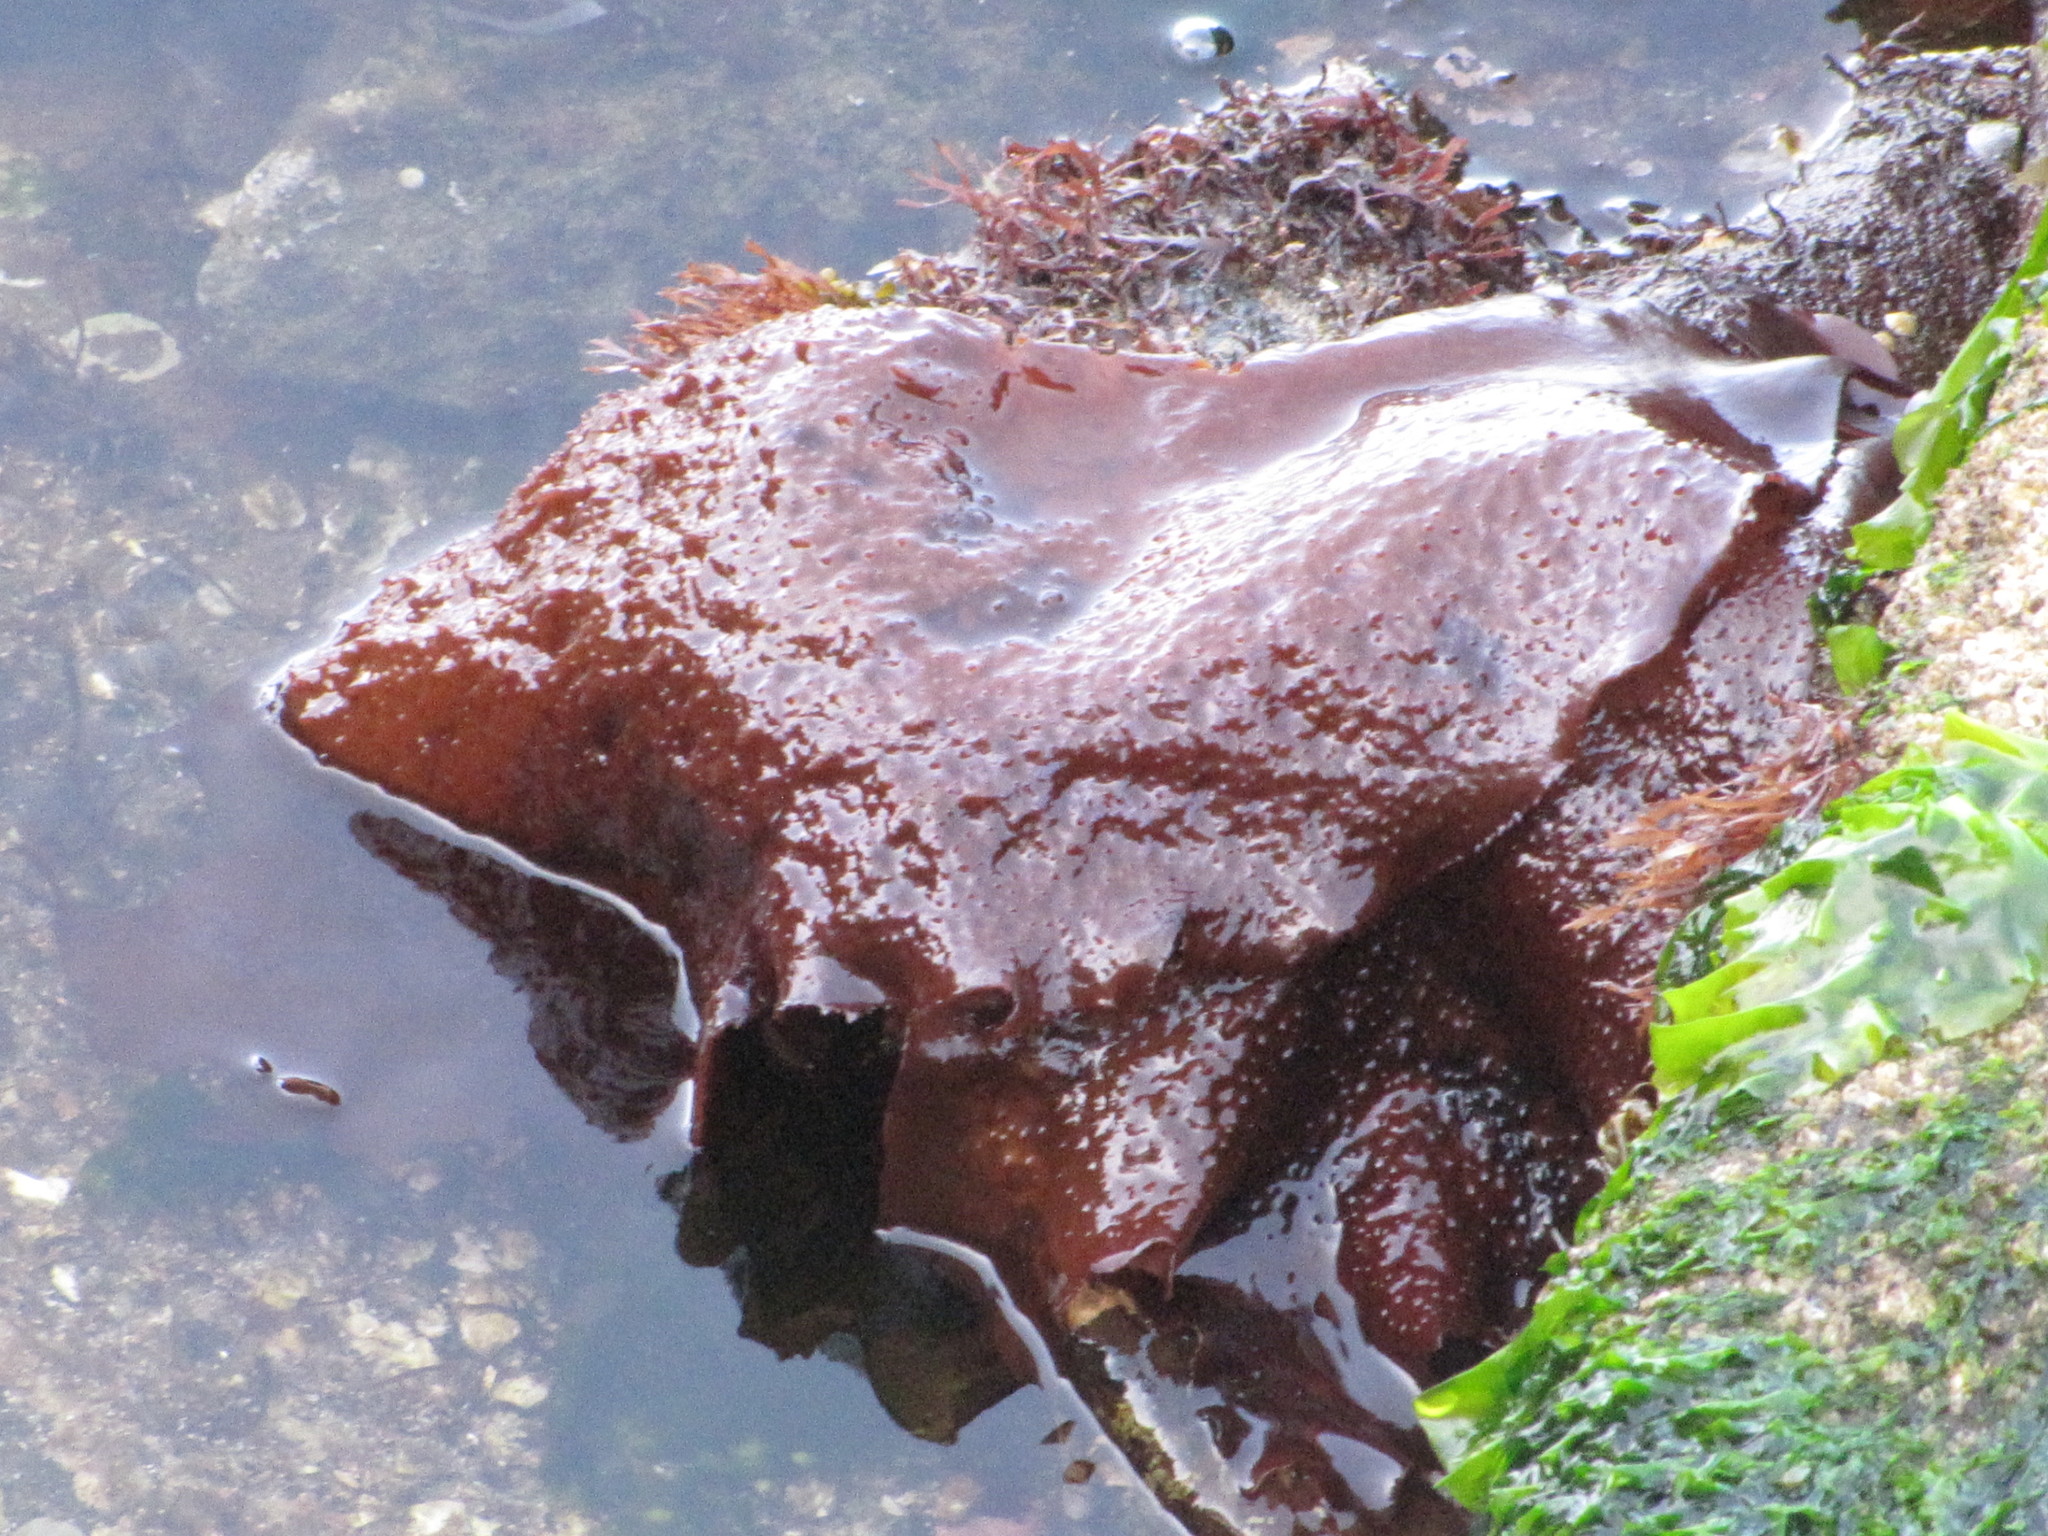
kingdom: Plantae
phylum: Rhodophyta
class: Florideophyceae
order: Gigartinales
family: Gigartinaceae
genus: Chondracanthus
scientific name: Chondracanthus exasperatus
